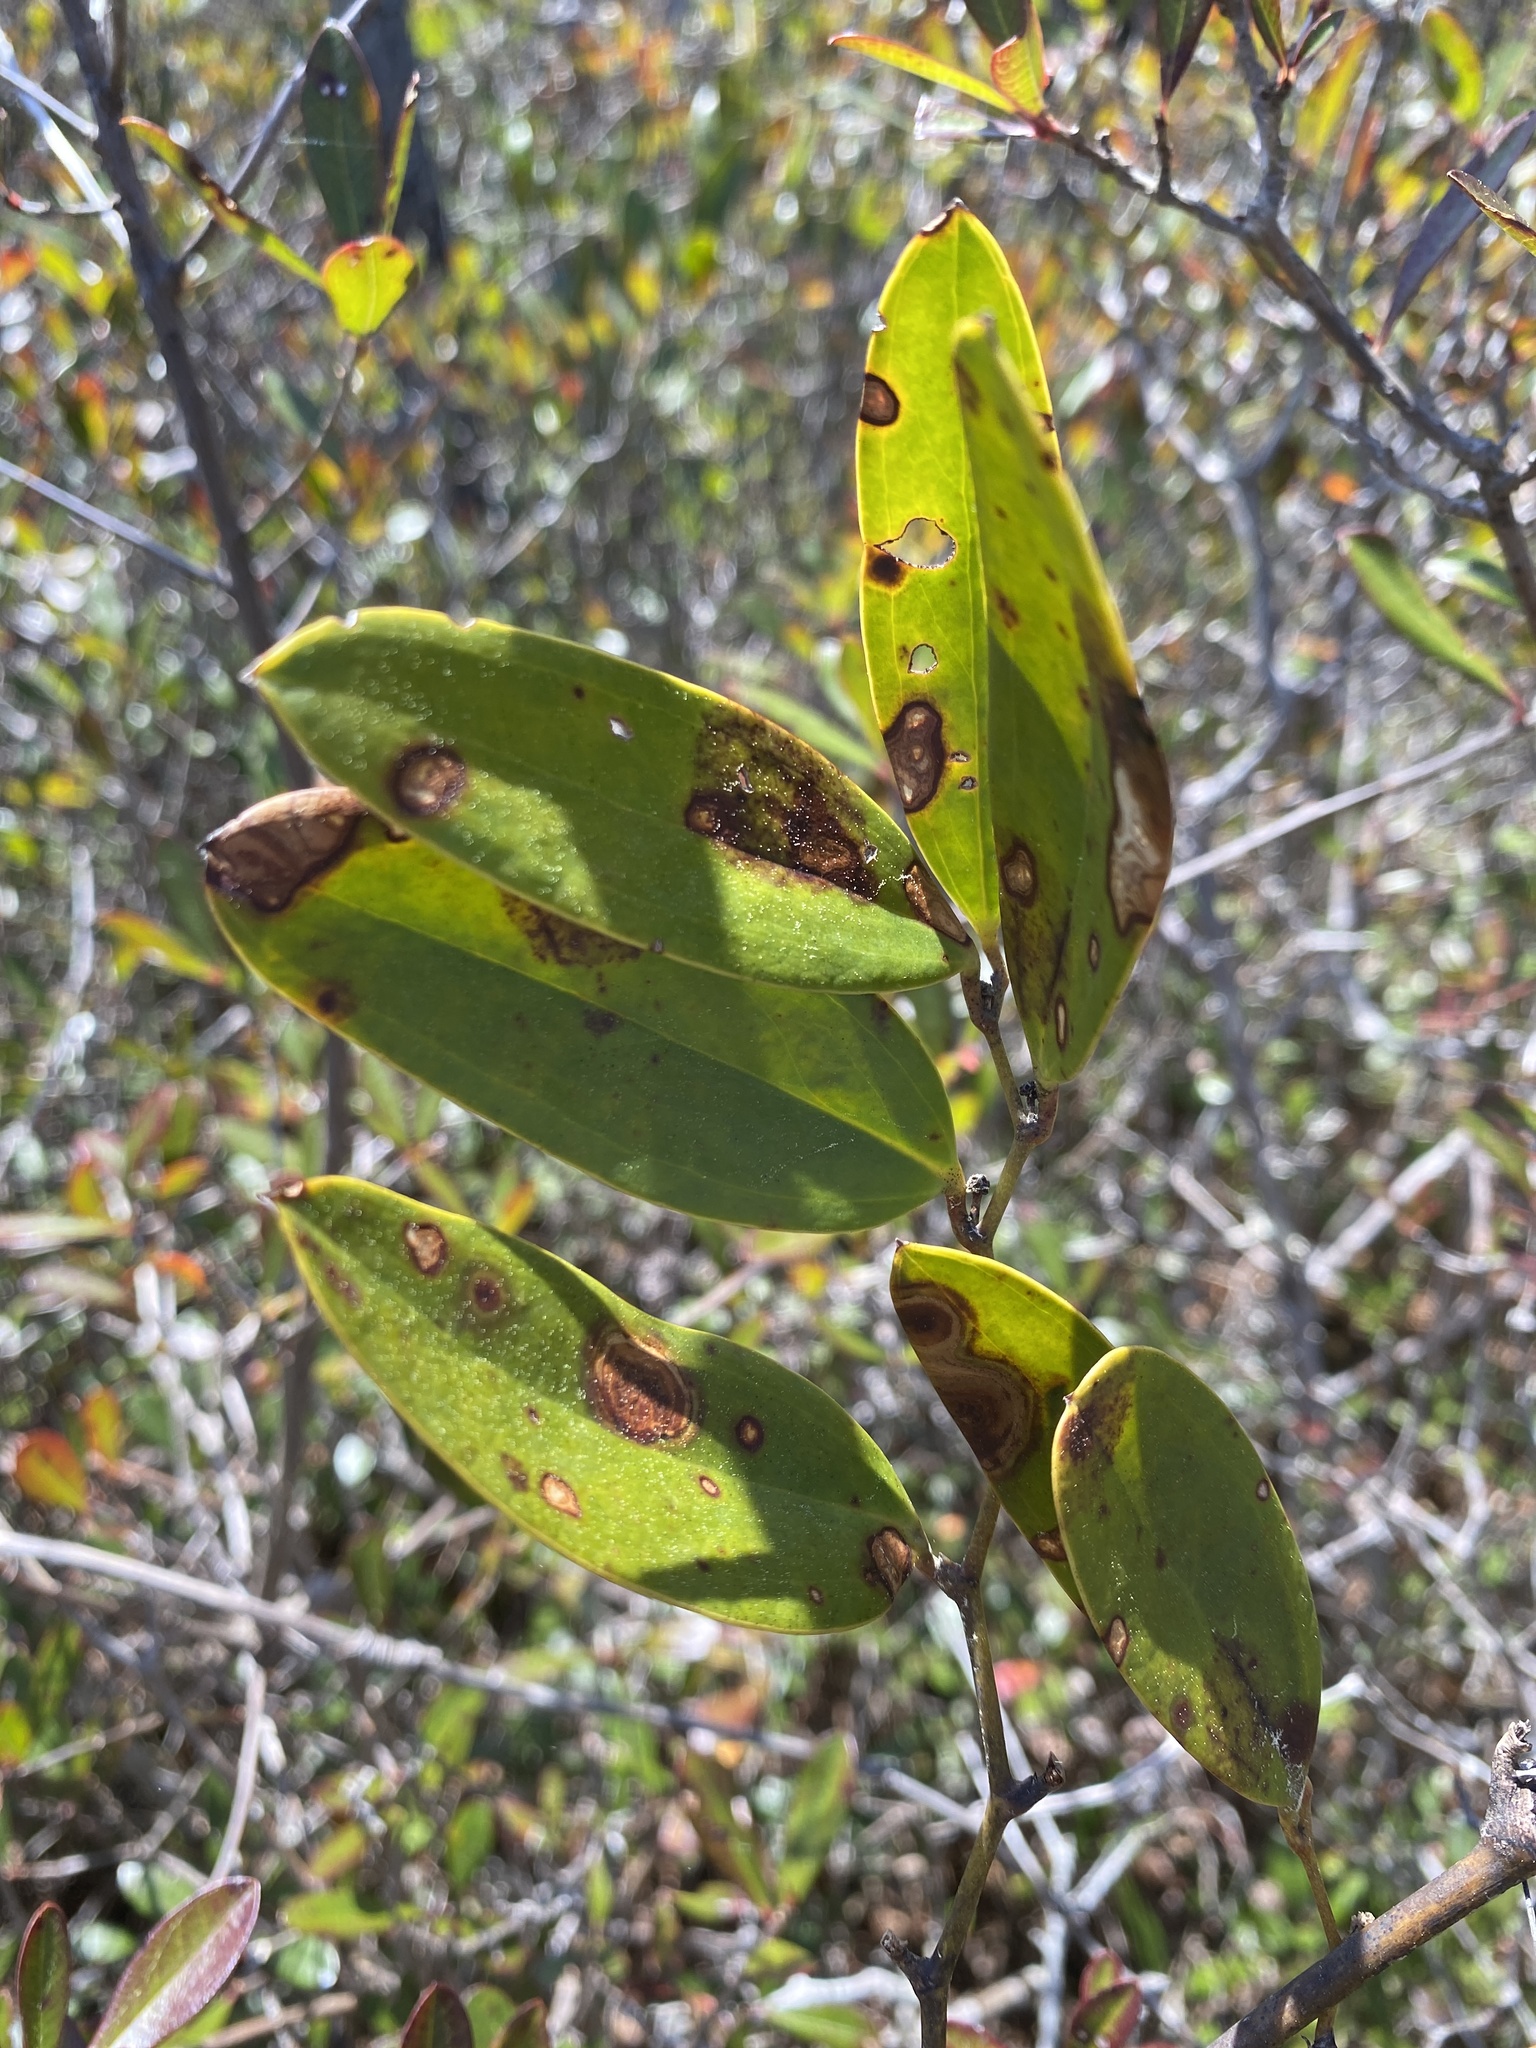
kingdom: Plantae
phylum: Tracheophyta
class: Liliopsida
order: Liliales
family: Smilacaceae
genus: Smilax
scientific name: Smilax laurifolia
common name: Bamboovine
